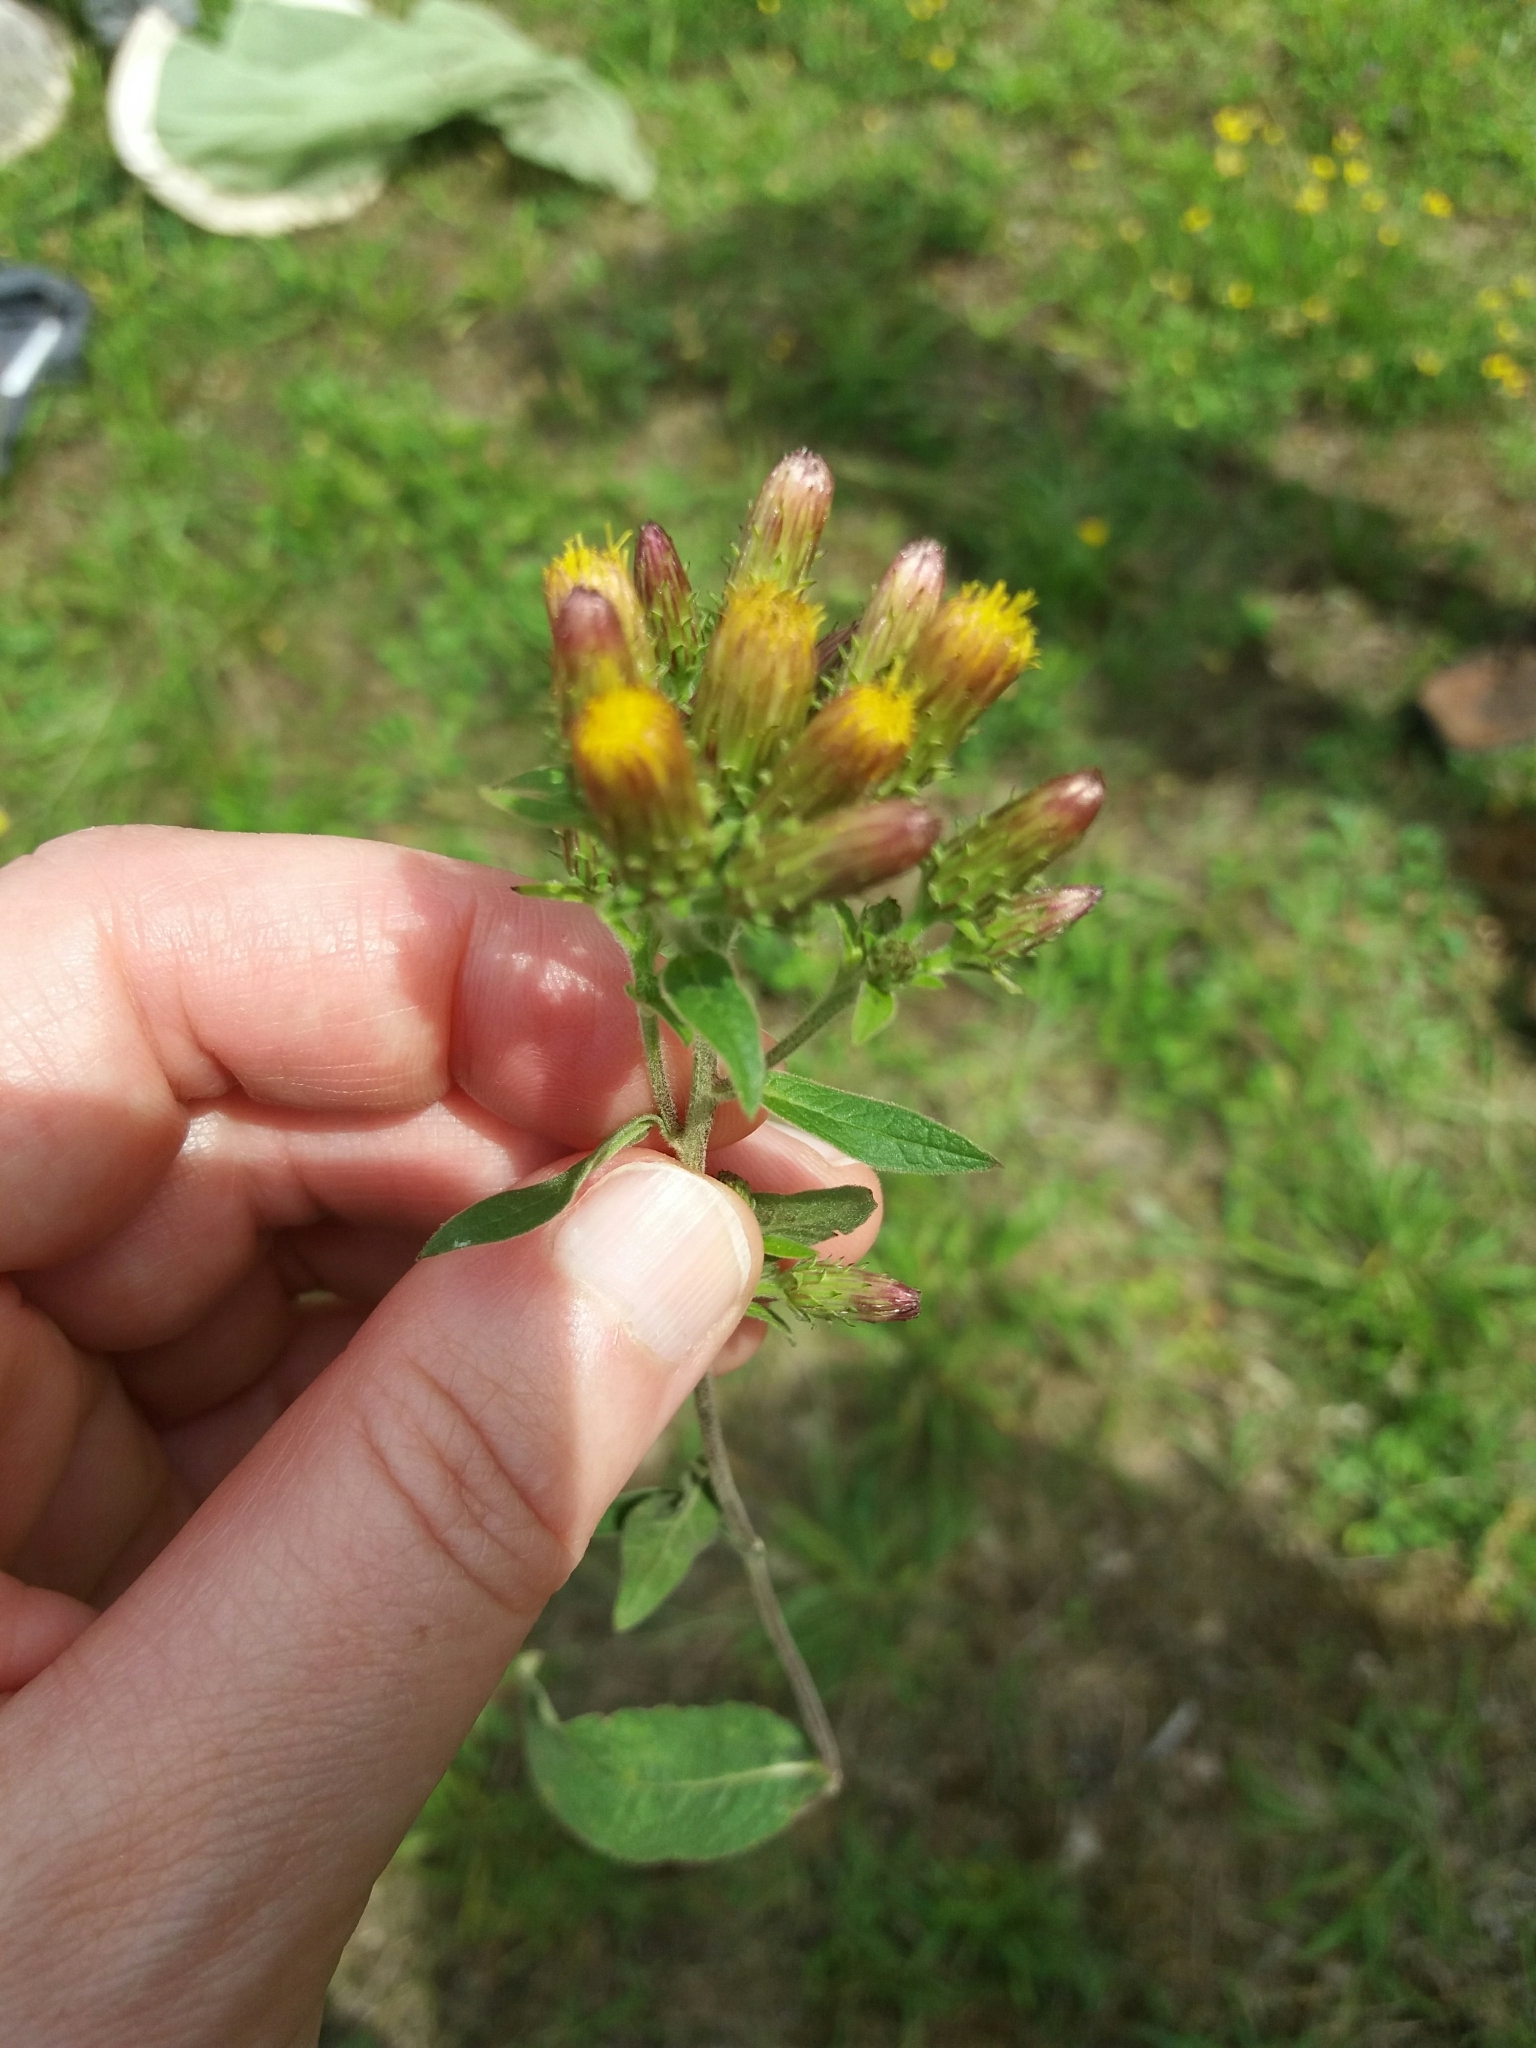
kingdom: Plantae
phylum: Tracheophyta
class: Magnoliopsida
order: Asterales
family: Asteraceae
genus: Pentanema
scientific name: Pentanema squarrosum
